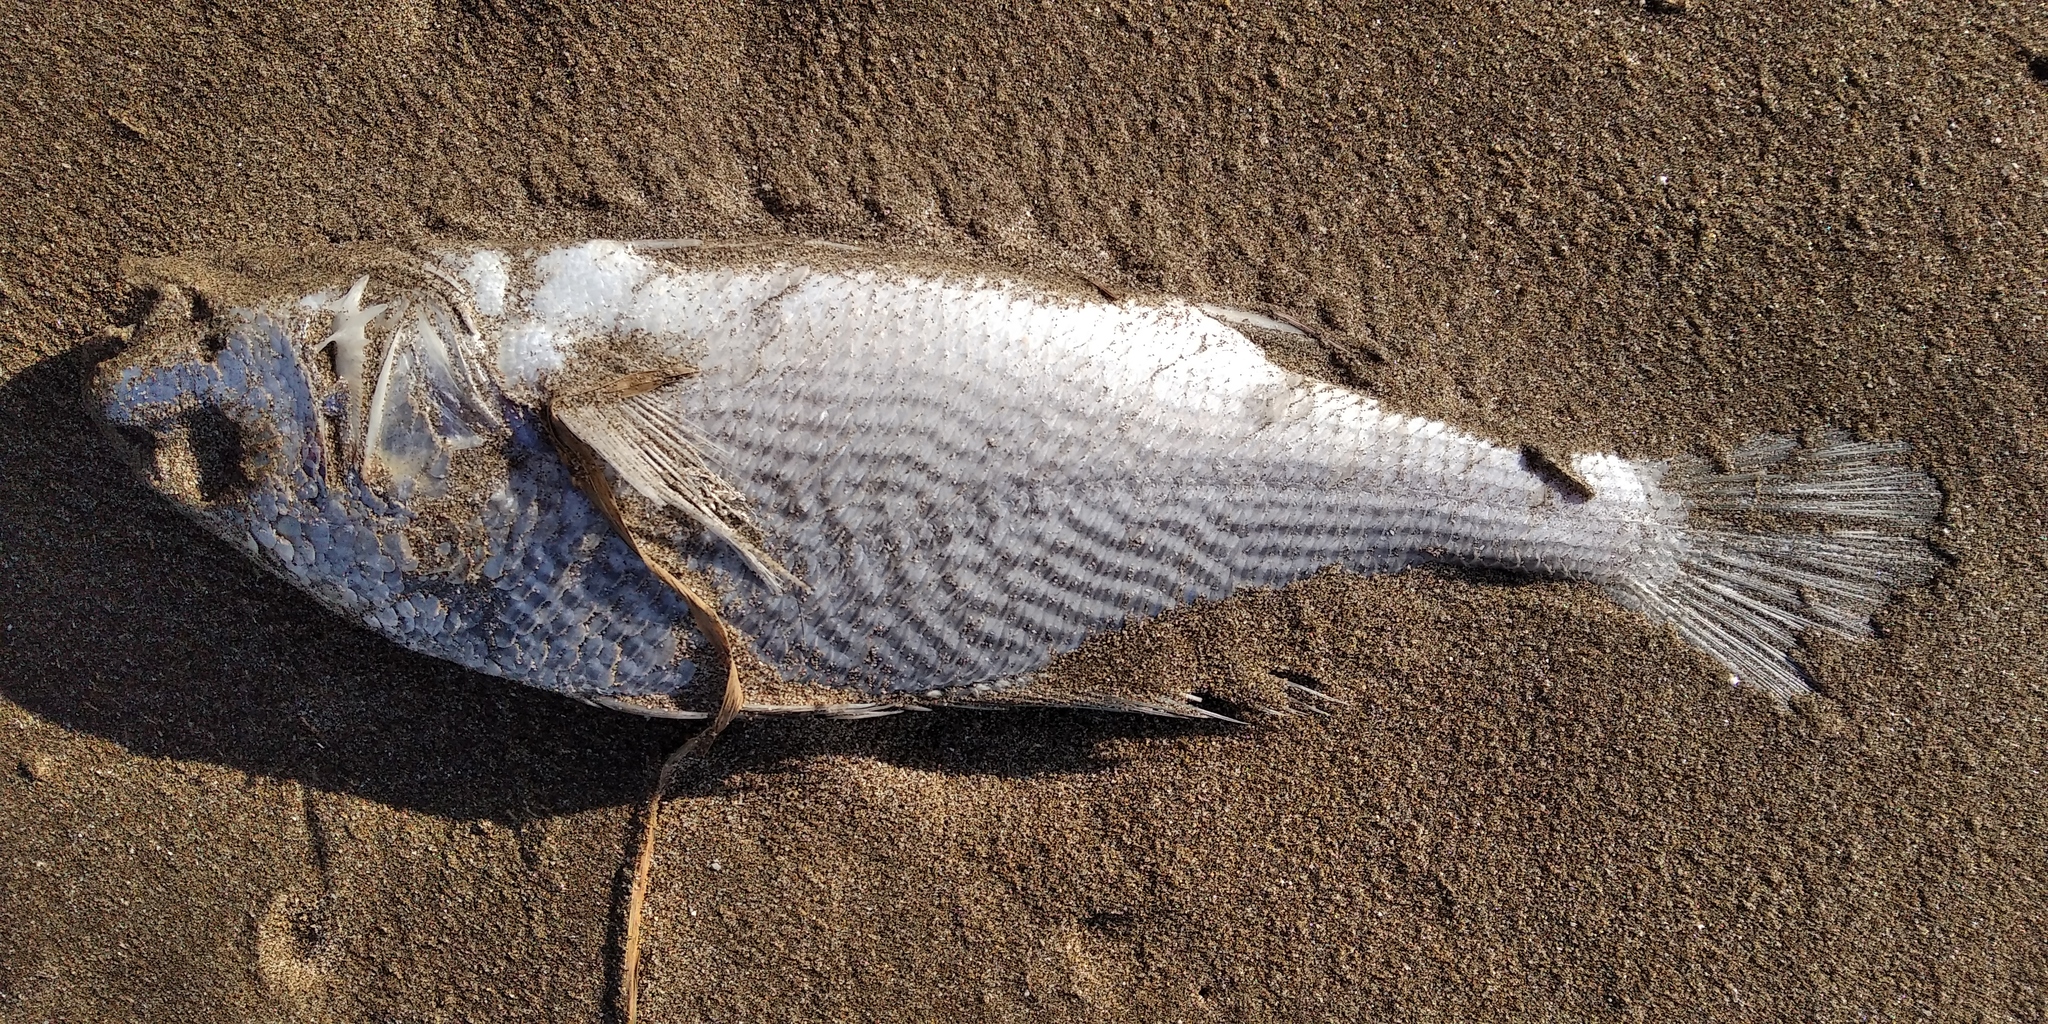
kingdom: Animalia
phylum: Chordata
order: Perciformes
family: Sciaenidae
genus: Micropogonias
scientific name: Micropogonias furnieri
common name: Whitemouth croaker
